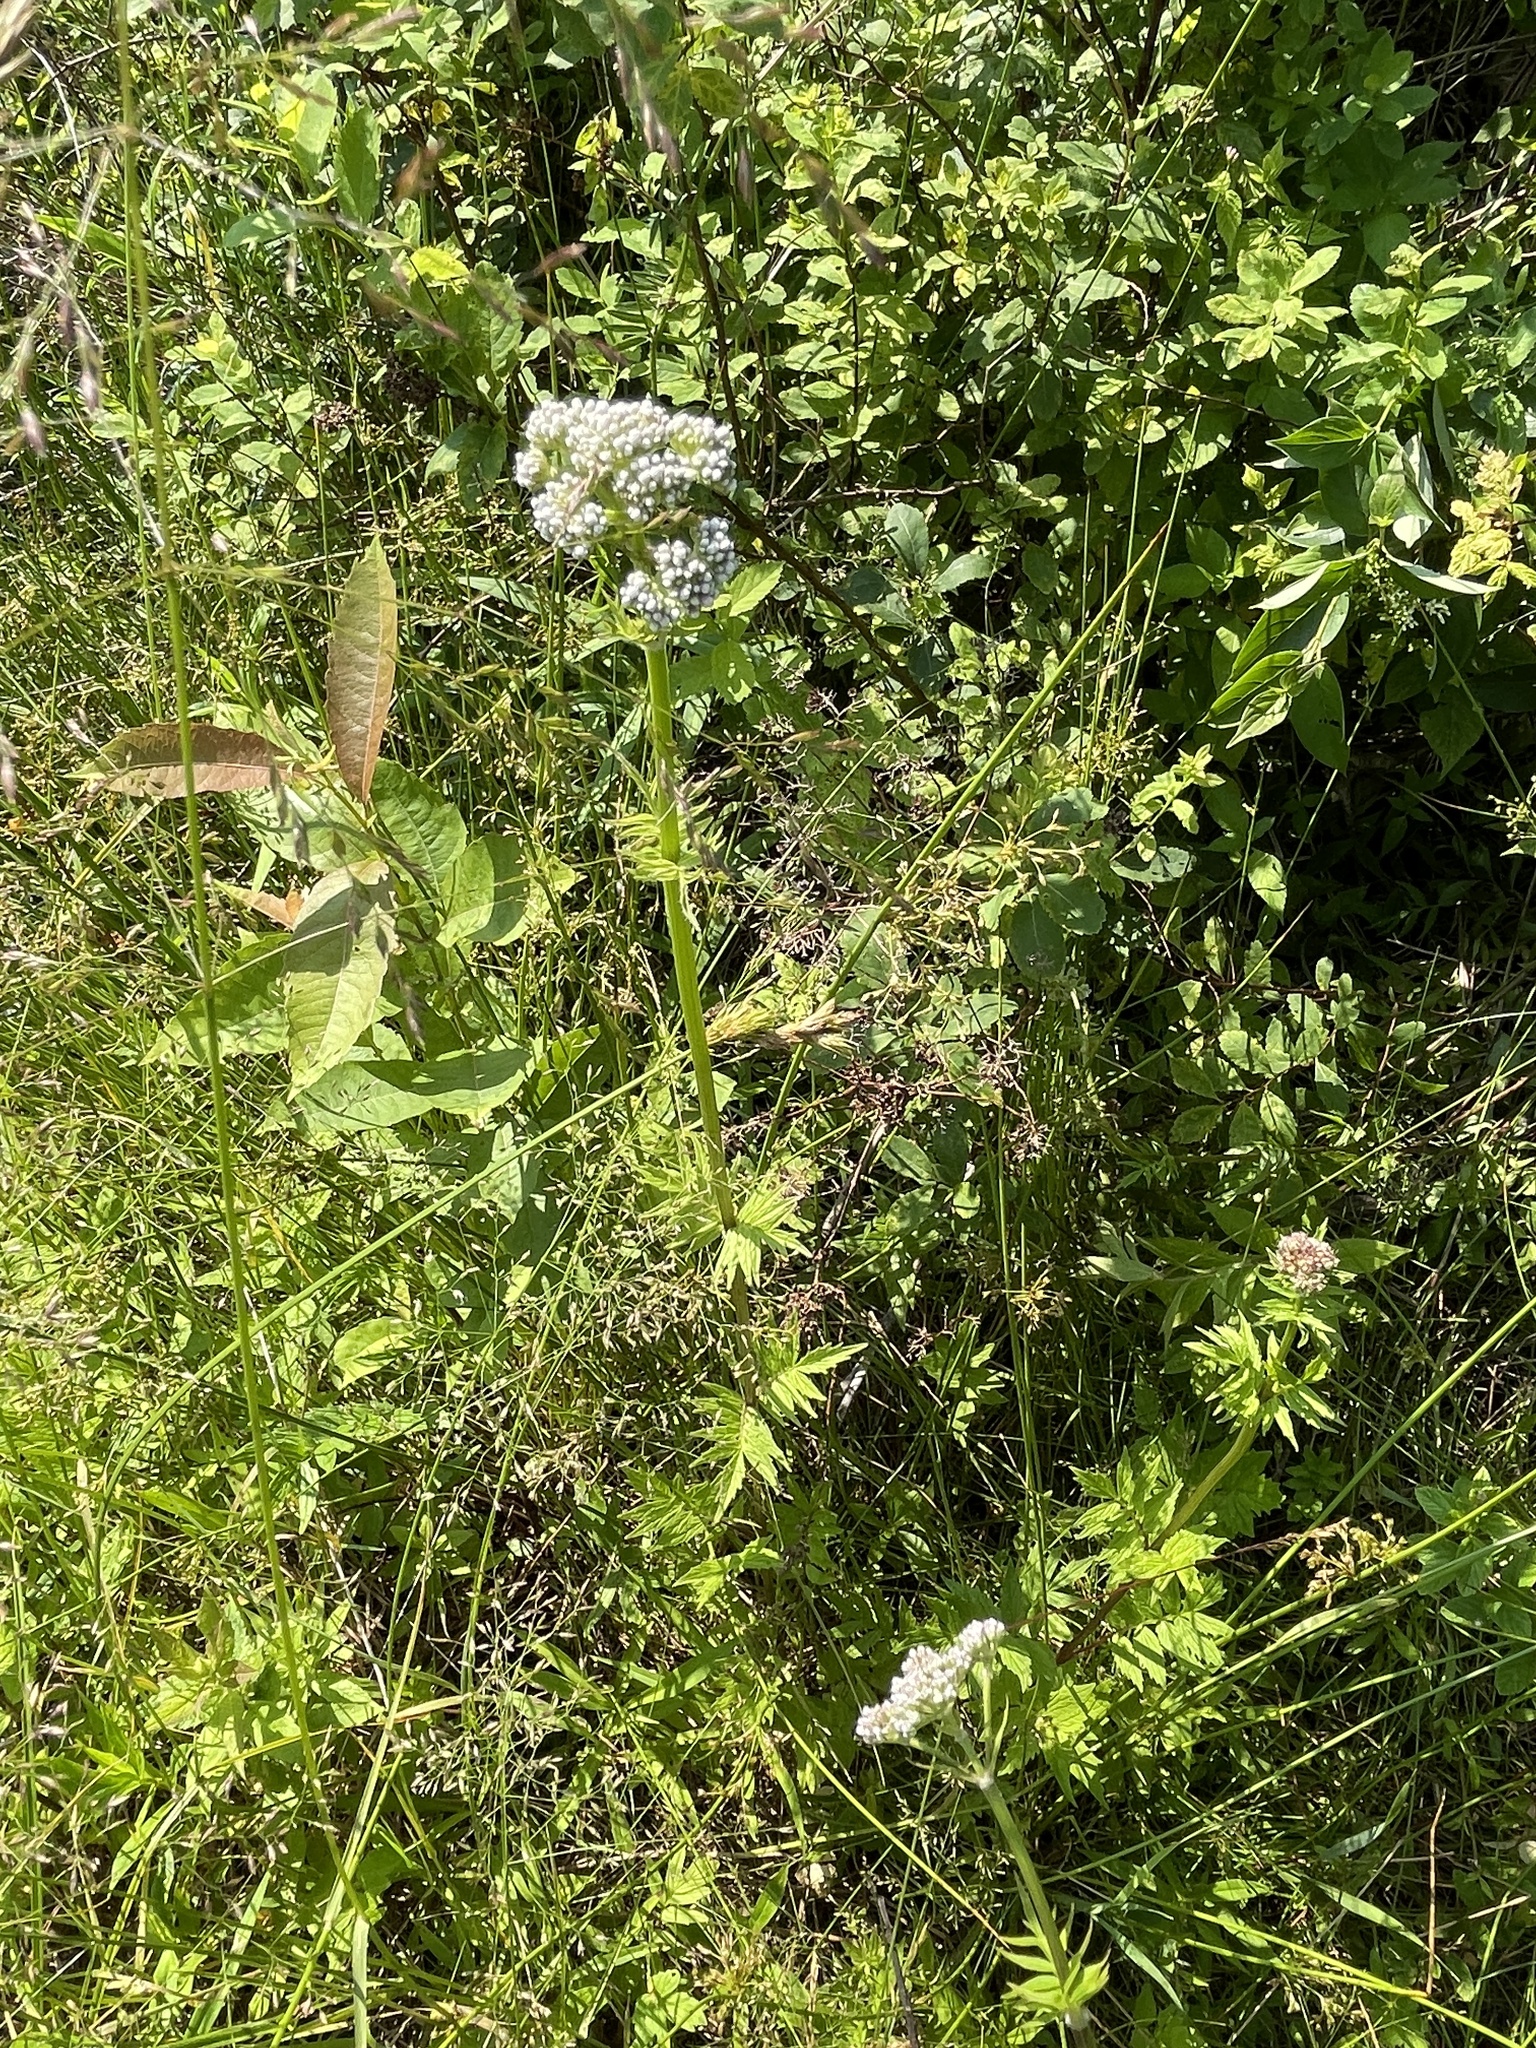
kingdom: Plantae
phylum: Tracheophyta
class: Magnoliopsida
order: Dipsacales
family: Caprifoliaceae
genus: Valeriana
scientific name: Valeriana officinalis
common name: Common valerian
